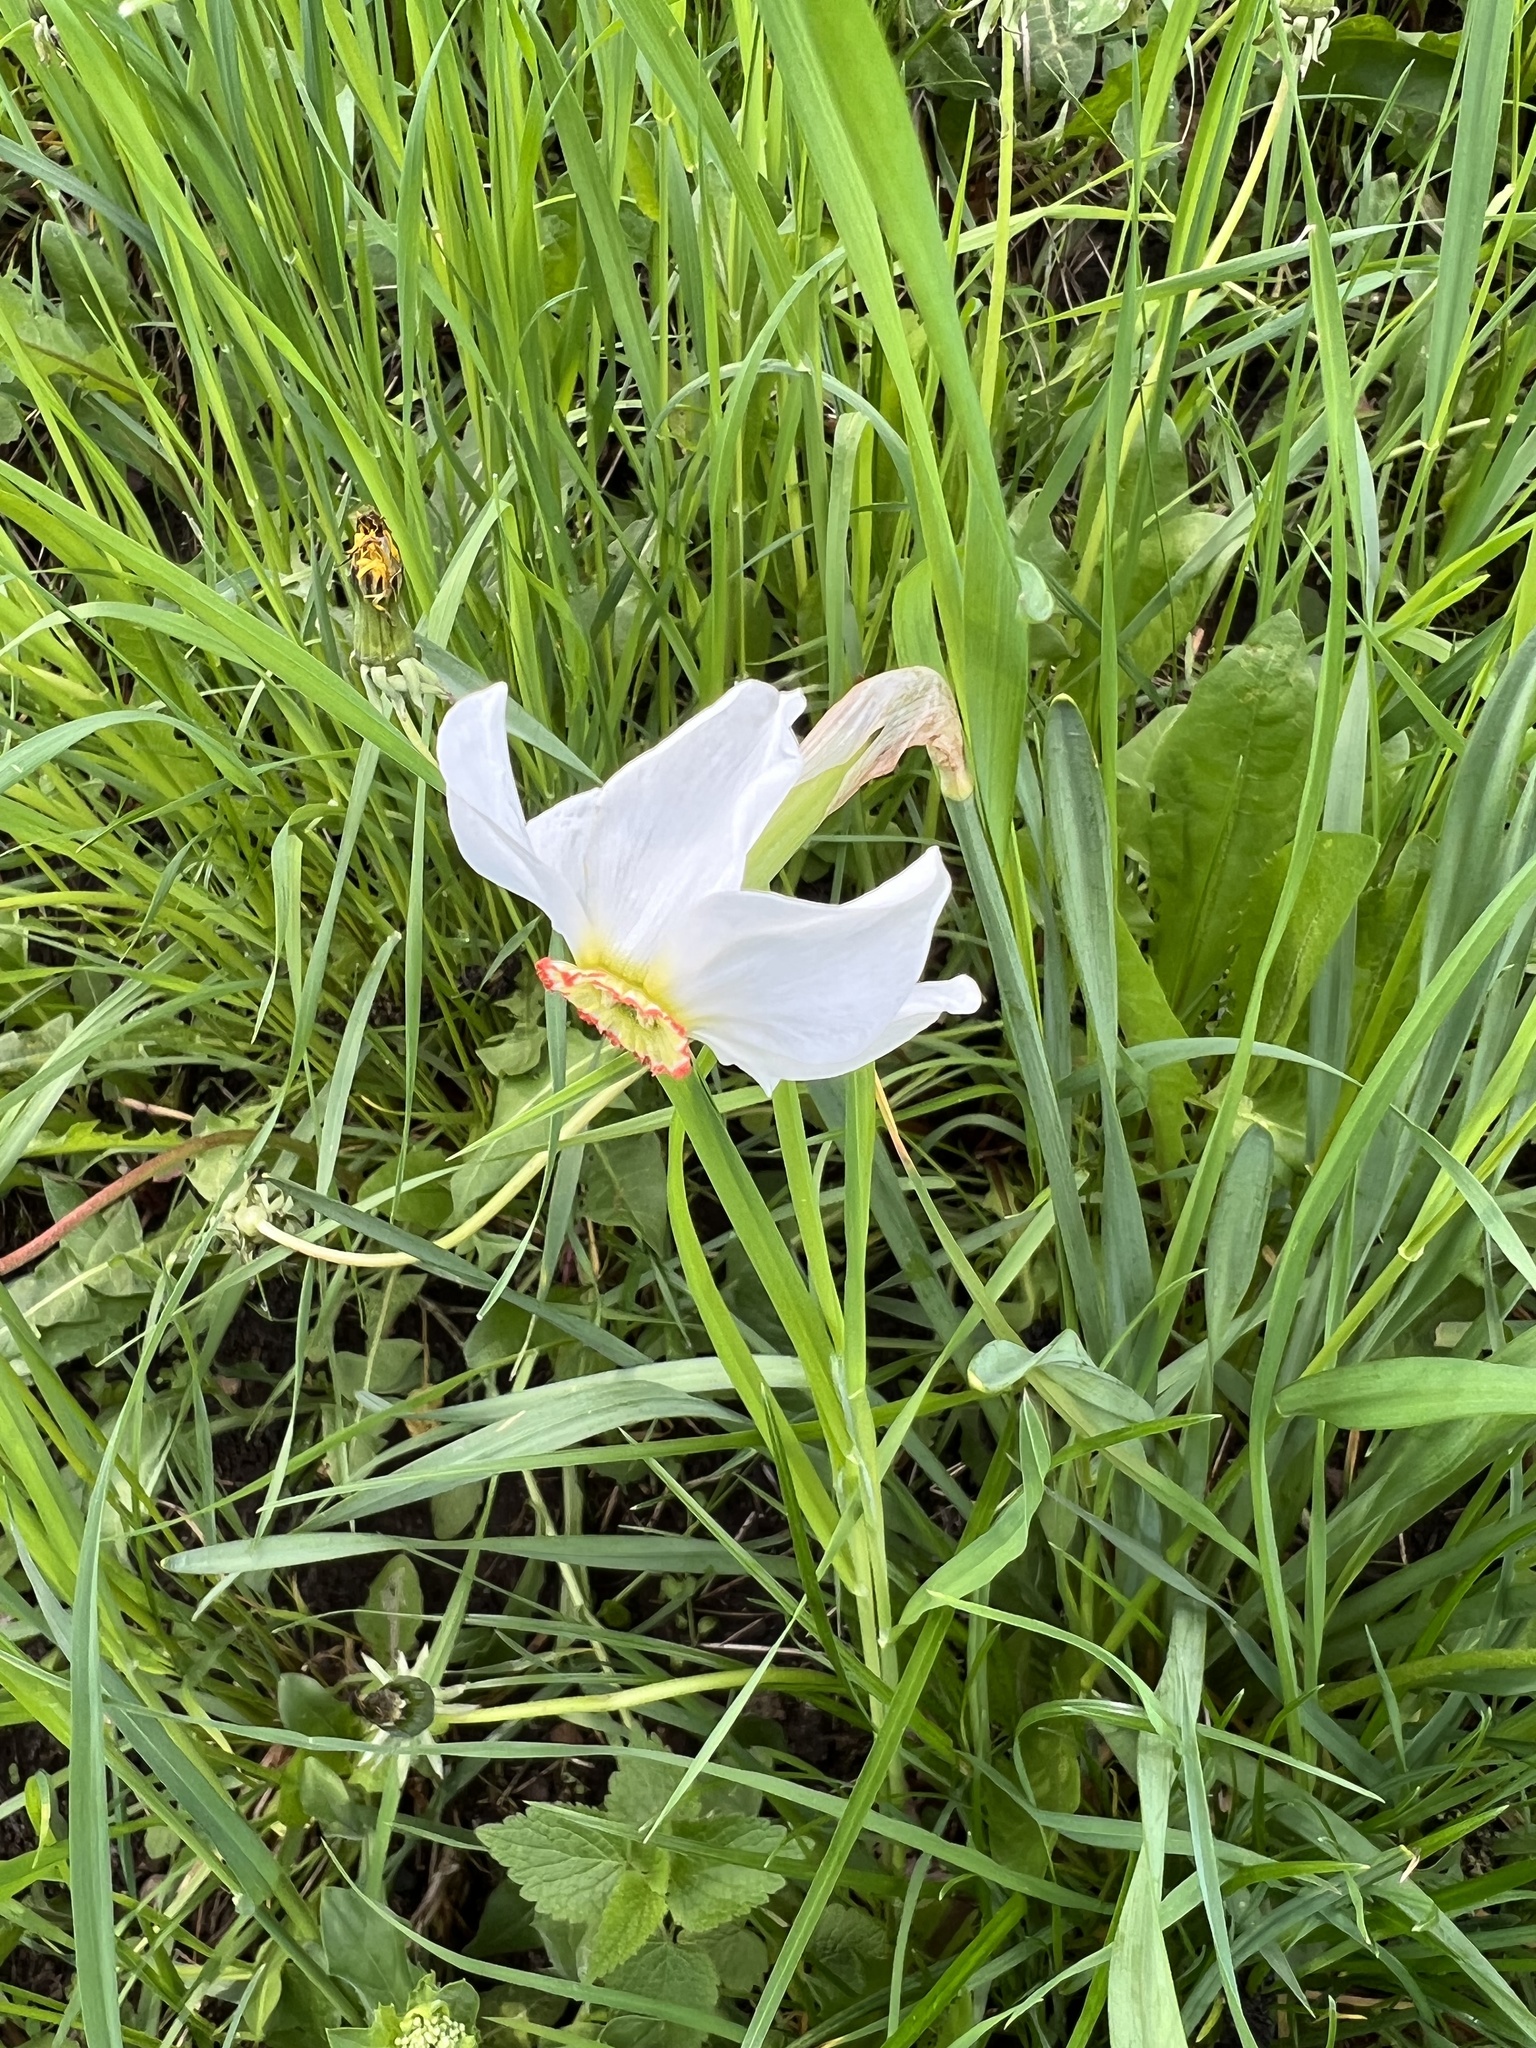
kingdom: Plantae
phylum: Tracheophyta
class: Liliopsida
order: Asparagales
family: Amaryllidaceae
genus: Narcissus
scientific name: Narcissus poeticus
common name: Pheasant's-eye daffodil
